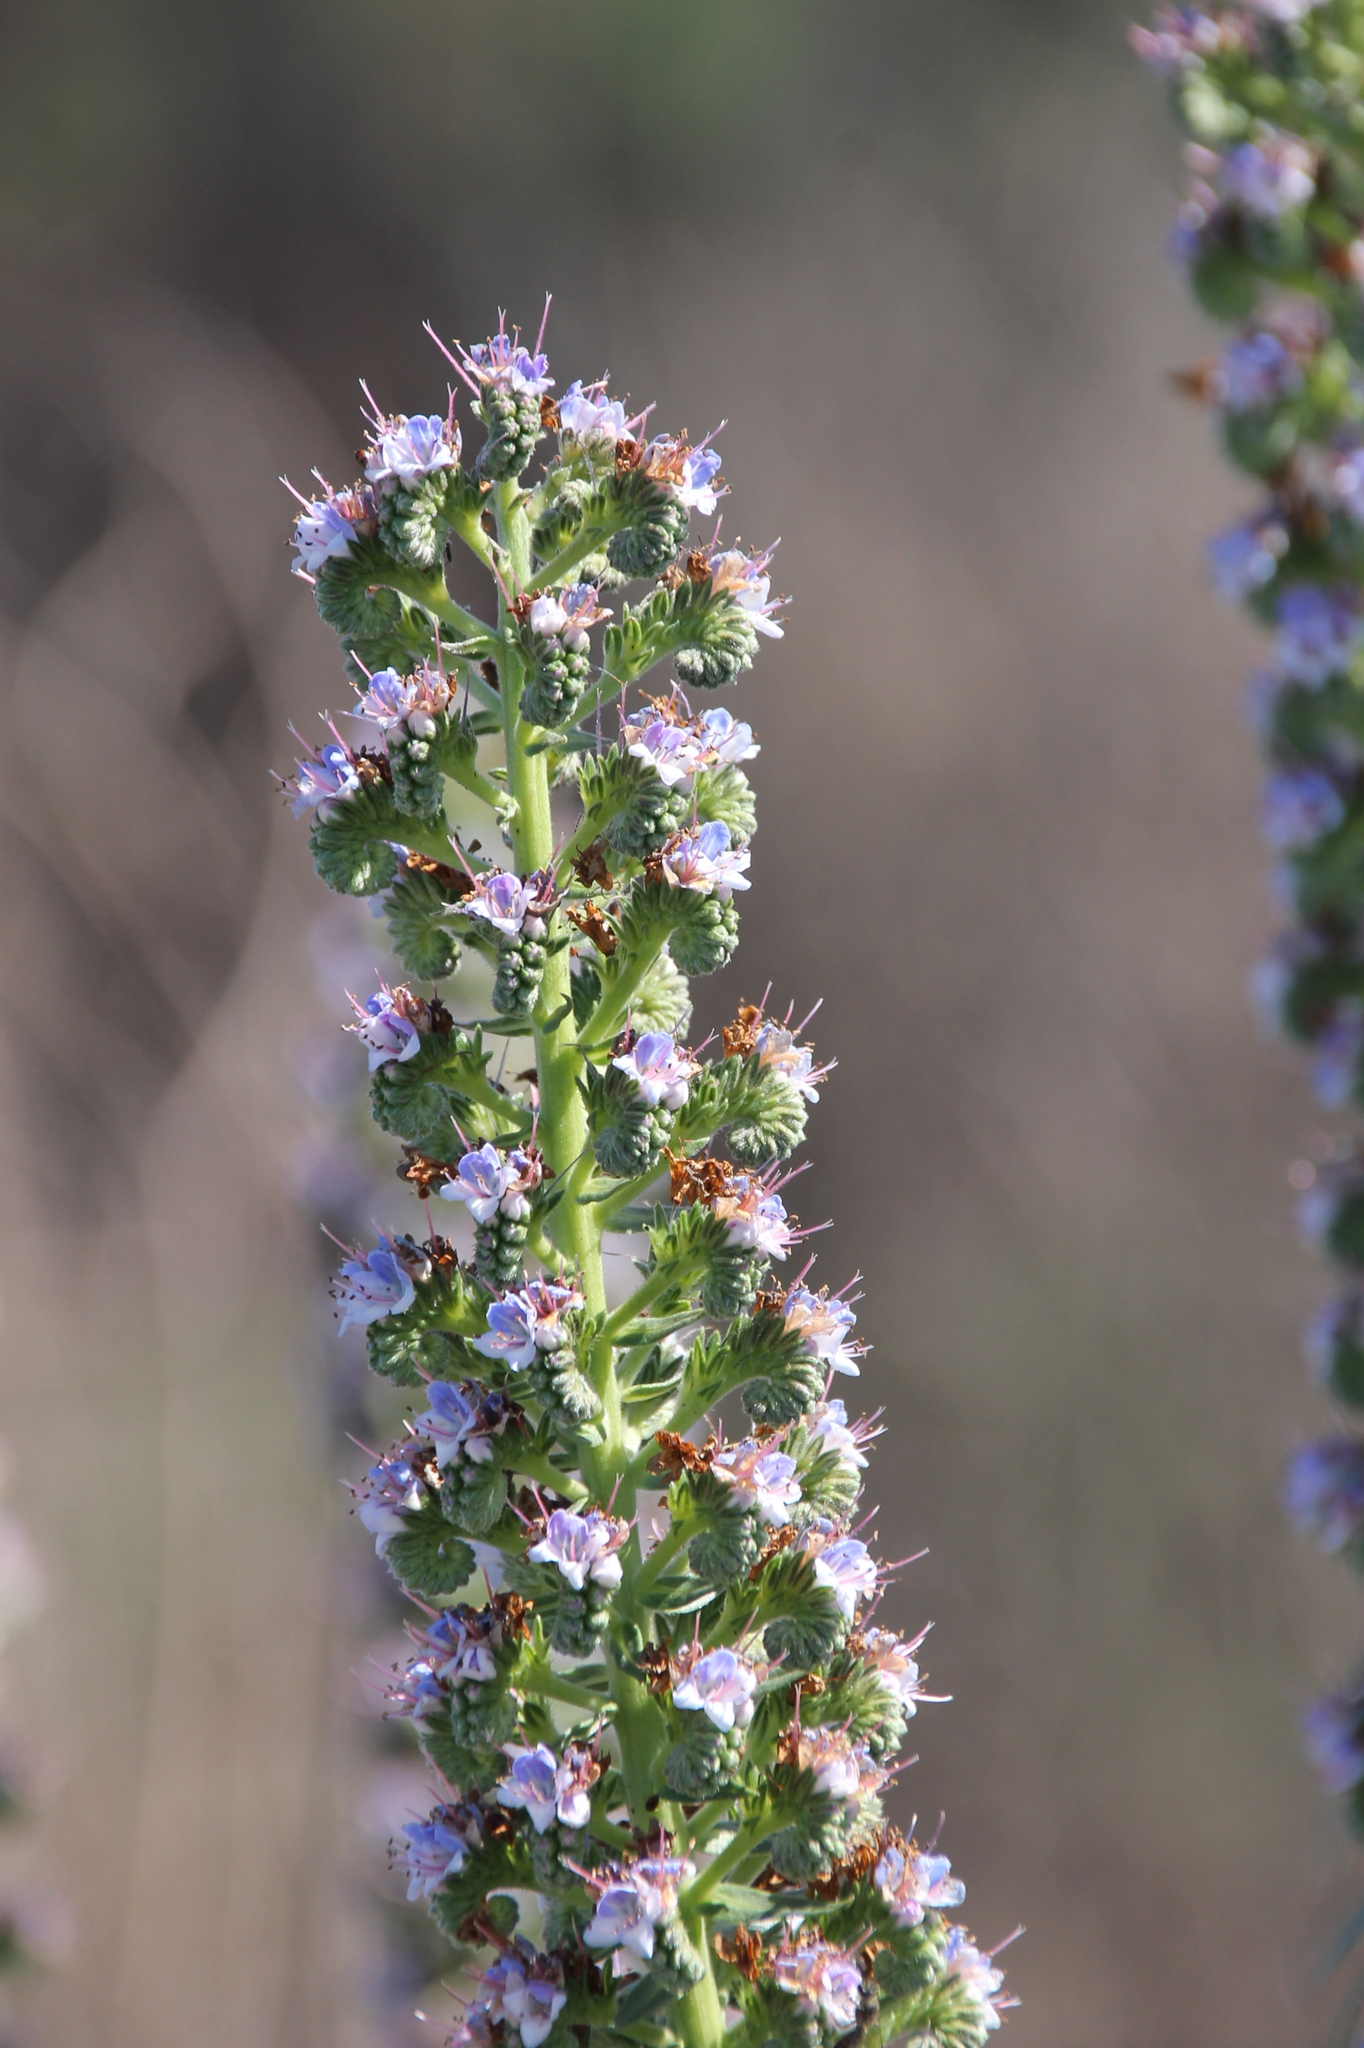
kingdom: Plantae
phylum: Tracheophyta
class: Magnoliopsida
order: Boraginales
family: Boraginaceae
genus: Echium
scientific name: Echium virescens
